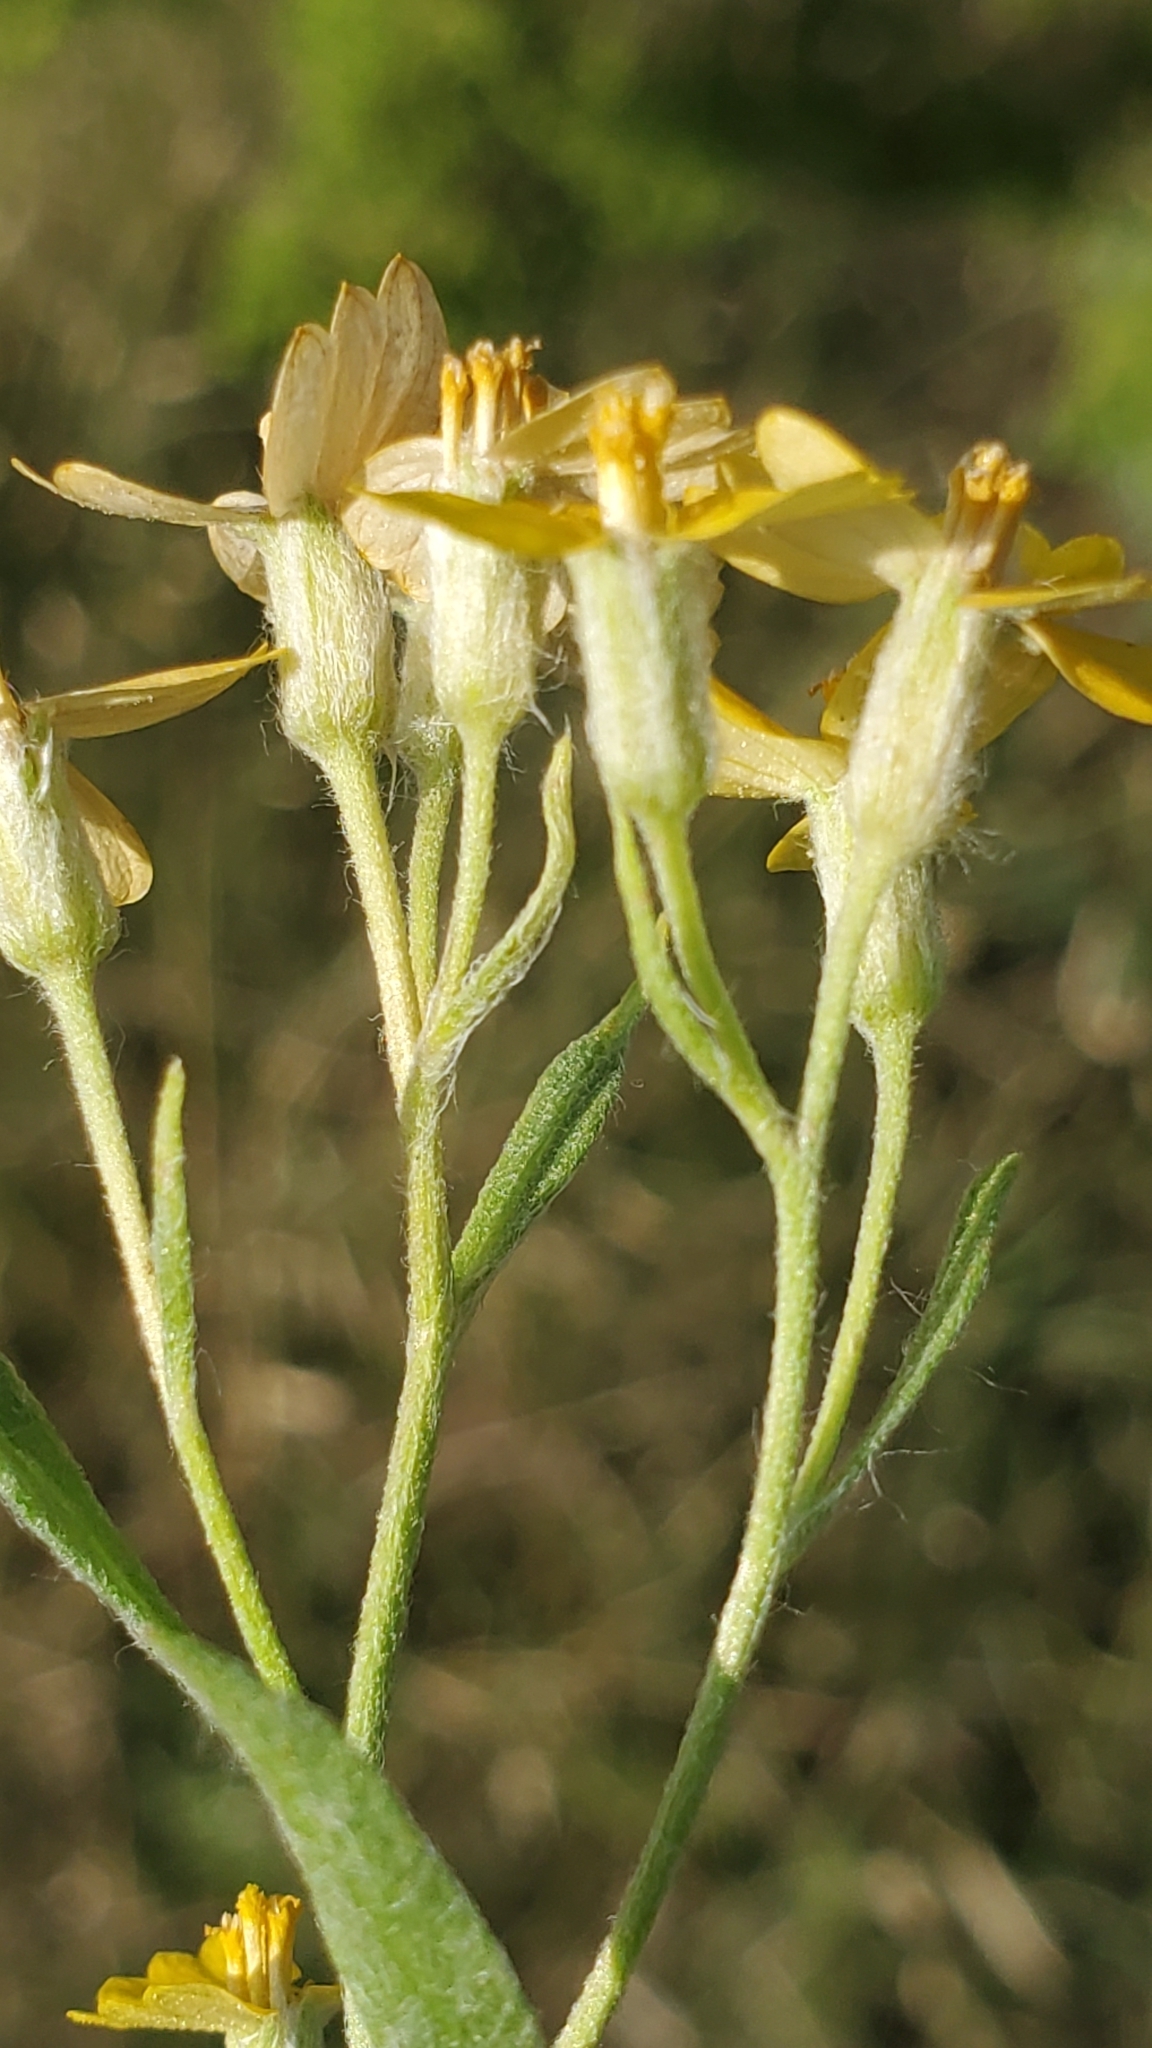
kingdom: Plantae
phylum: Tracheophyta
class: Magnoliopsida
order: Asterales
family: Asteraceae
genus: Psilostrophe
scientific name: Psilostrophe tagetina
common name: Marigold paper-flower
